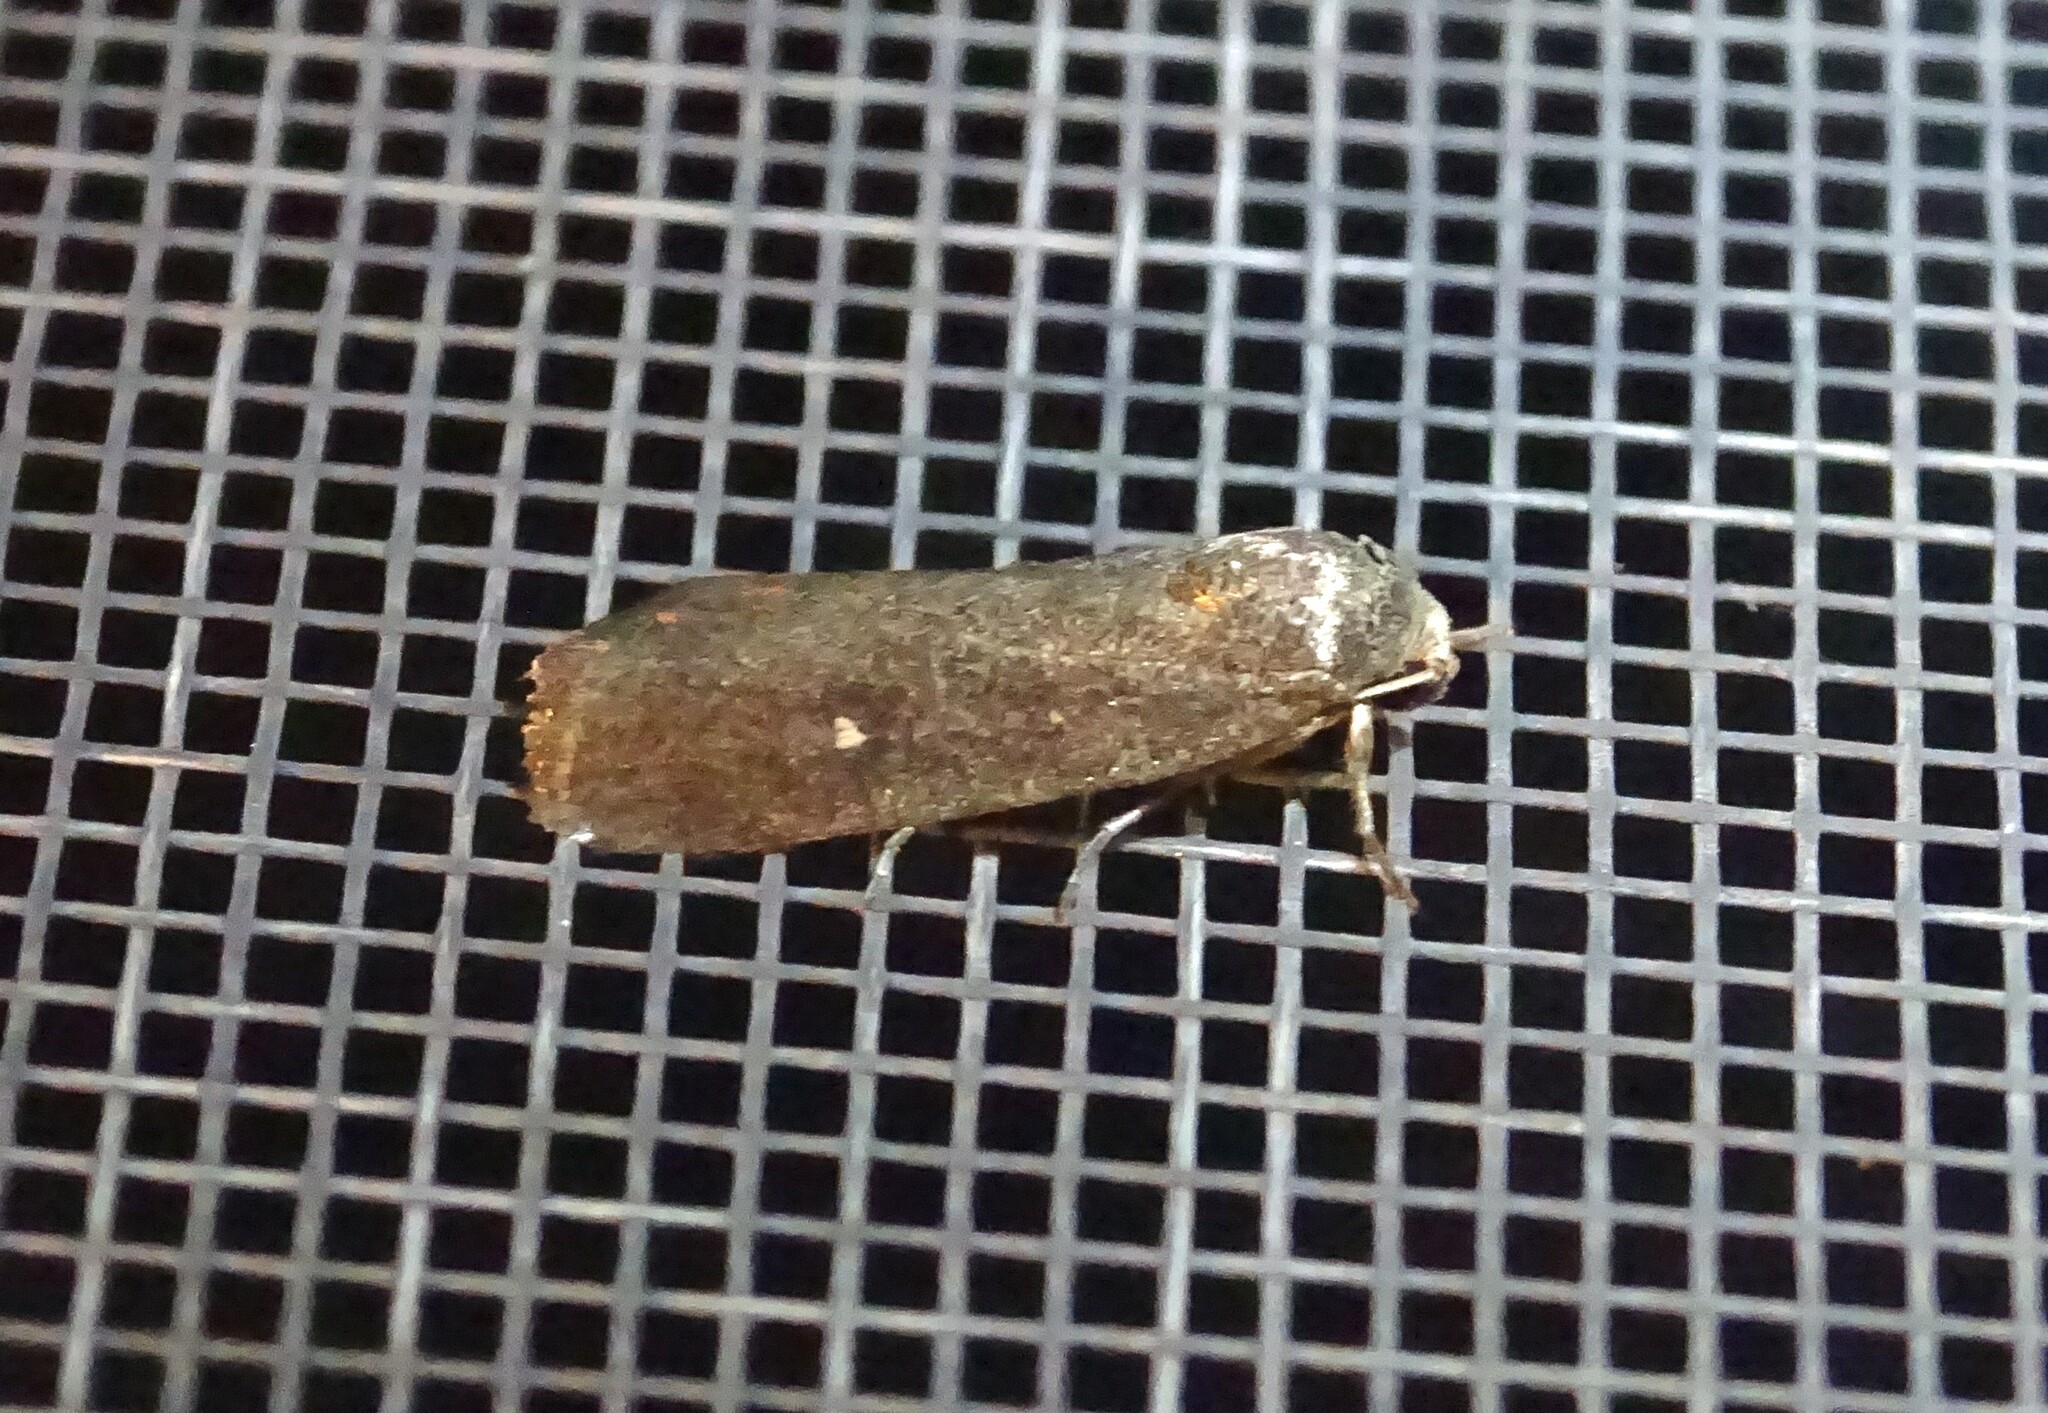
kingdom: Animalia
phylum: Arthropoda
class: Insecta
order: Lepidoptera
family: Noctuidae
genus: Proxenus
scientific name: Proxenus miranda
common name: Miranda moth
